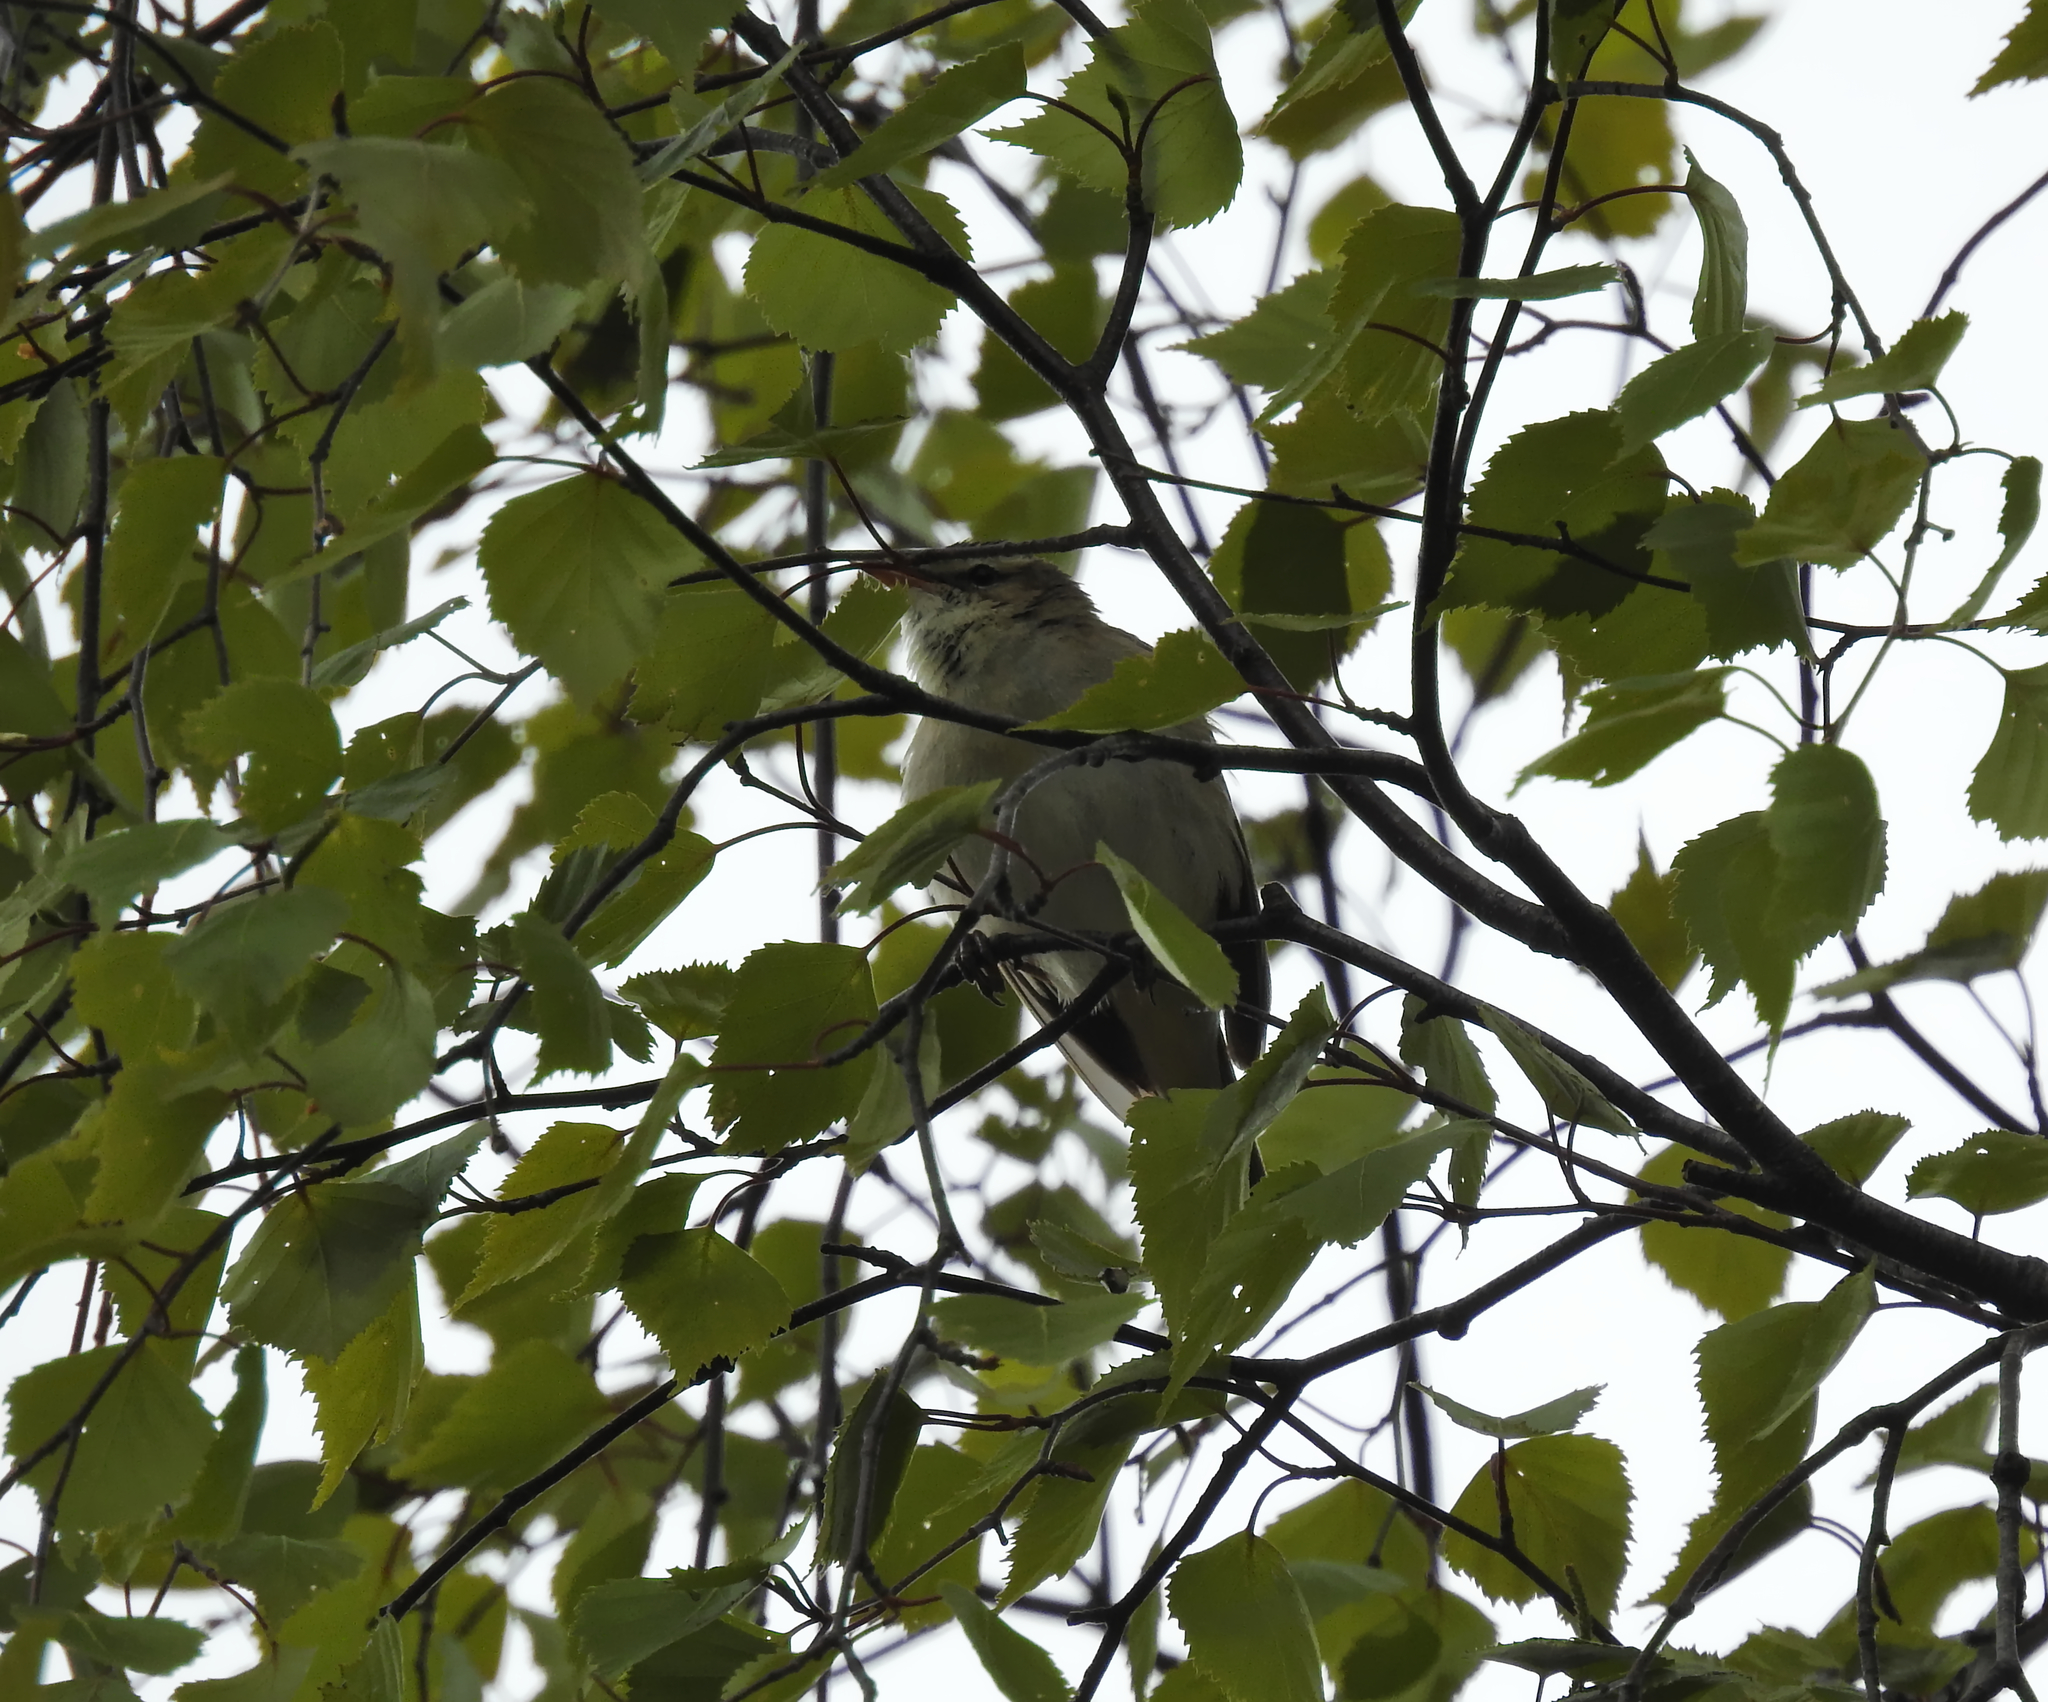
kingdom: Animalia
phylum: Chordata
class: Aves
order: Passeriformes
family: Acrocephalidae
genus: Acrocephalus
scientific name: Acrocephalus schoenobaenus
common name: Sedge warbler
